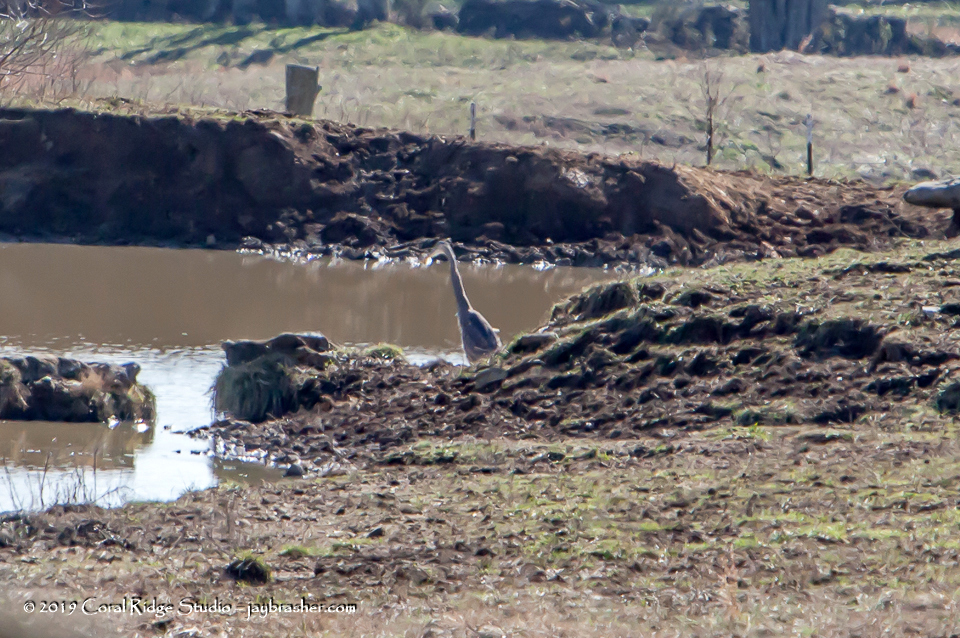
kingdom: Animalia
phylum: Chordata
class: Aves
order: Pelecaniformes
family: Ardeidae
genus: Ardea
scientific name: Ardea herodias
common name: Great blue heron
